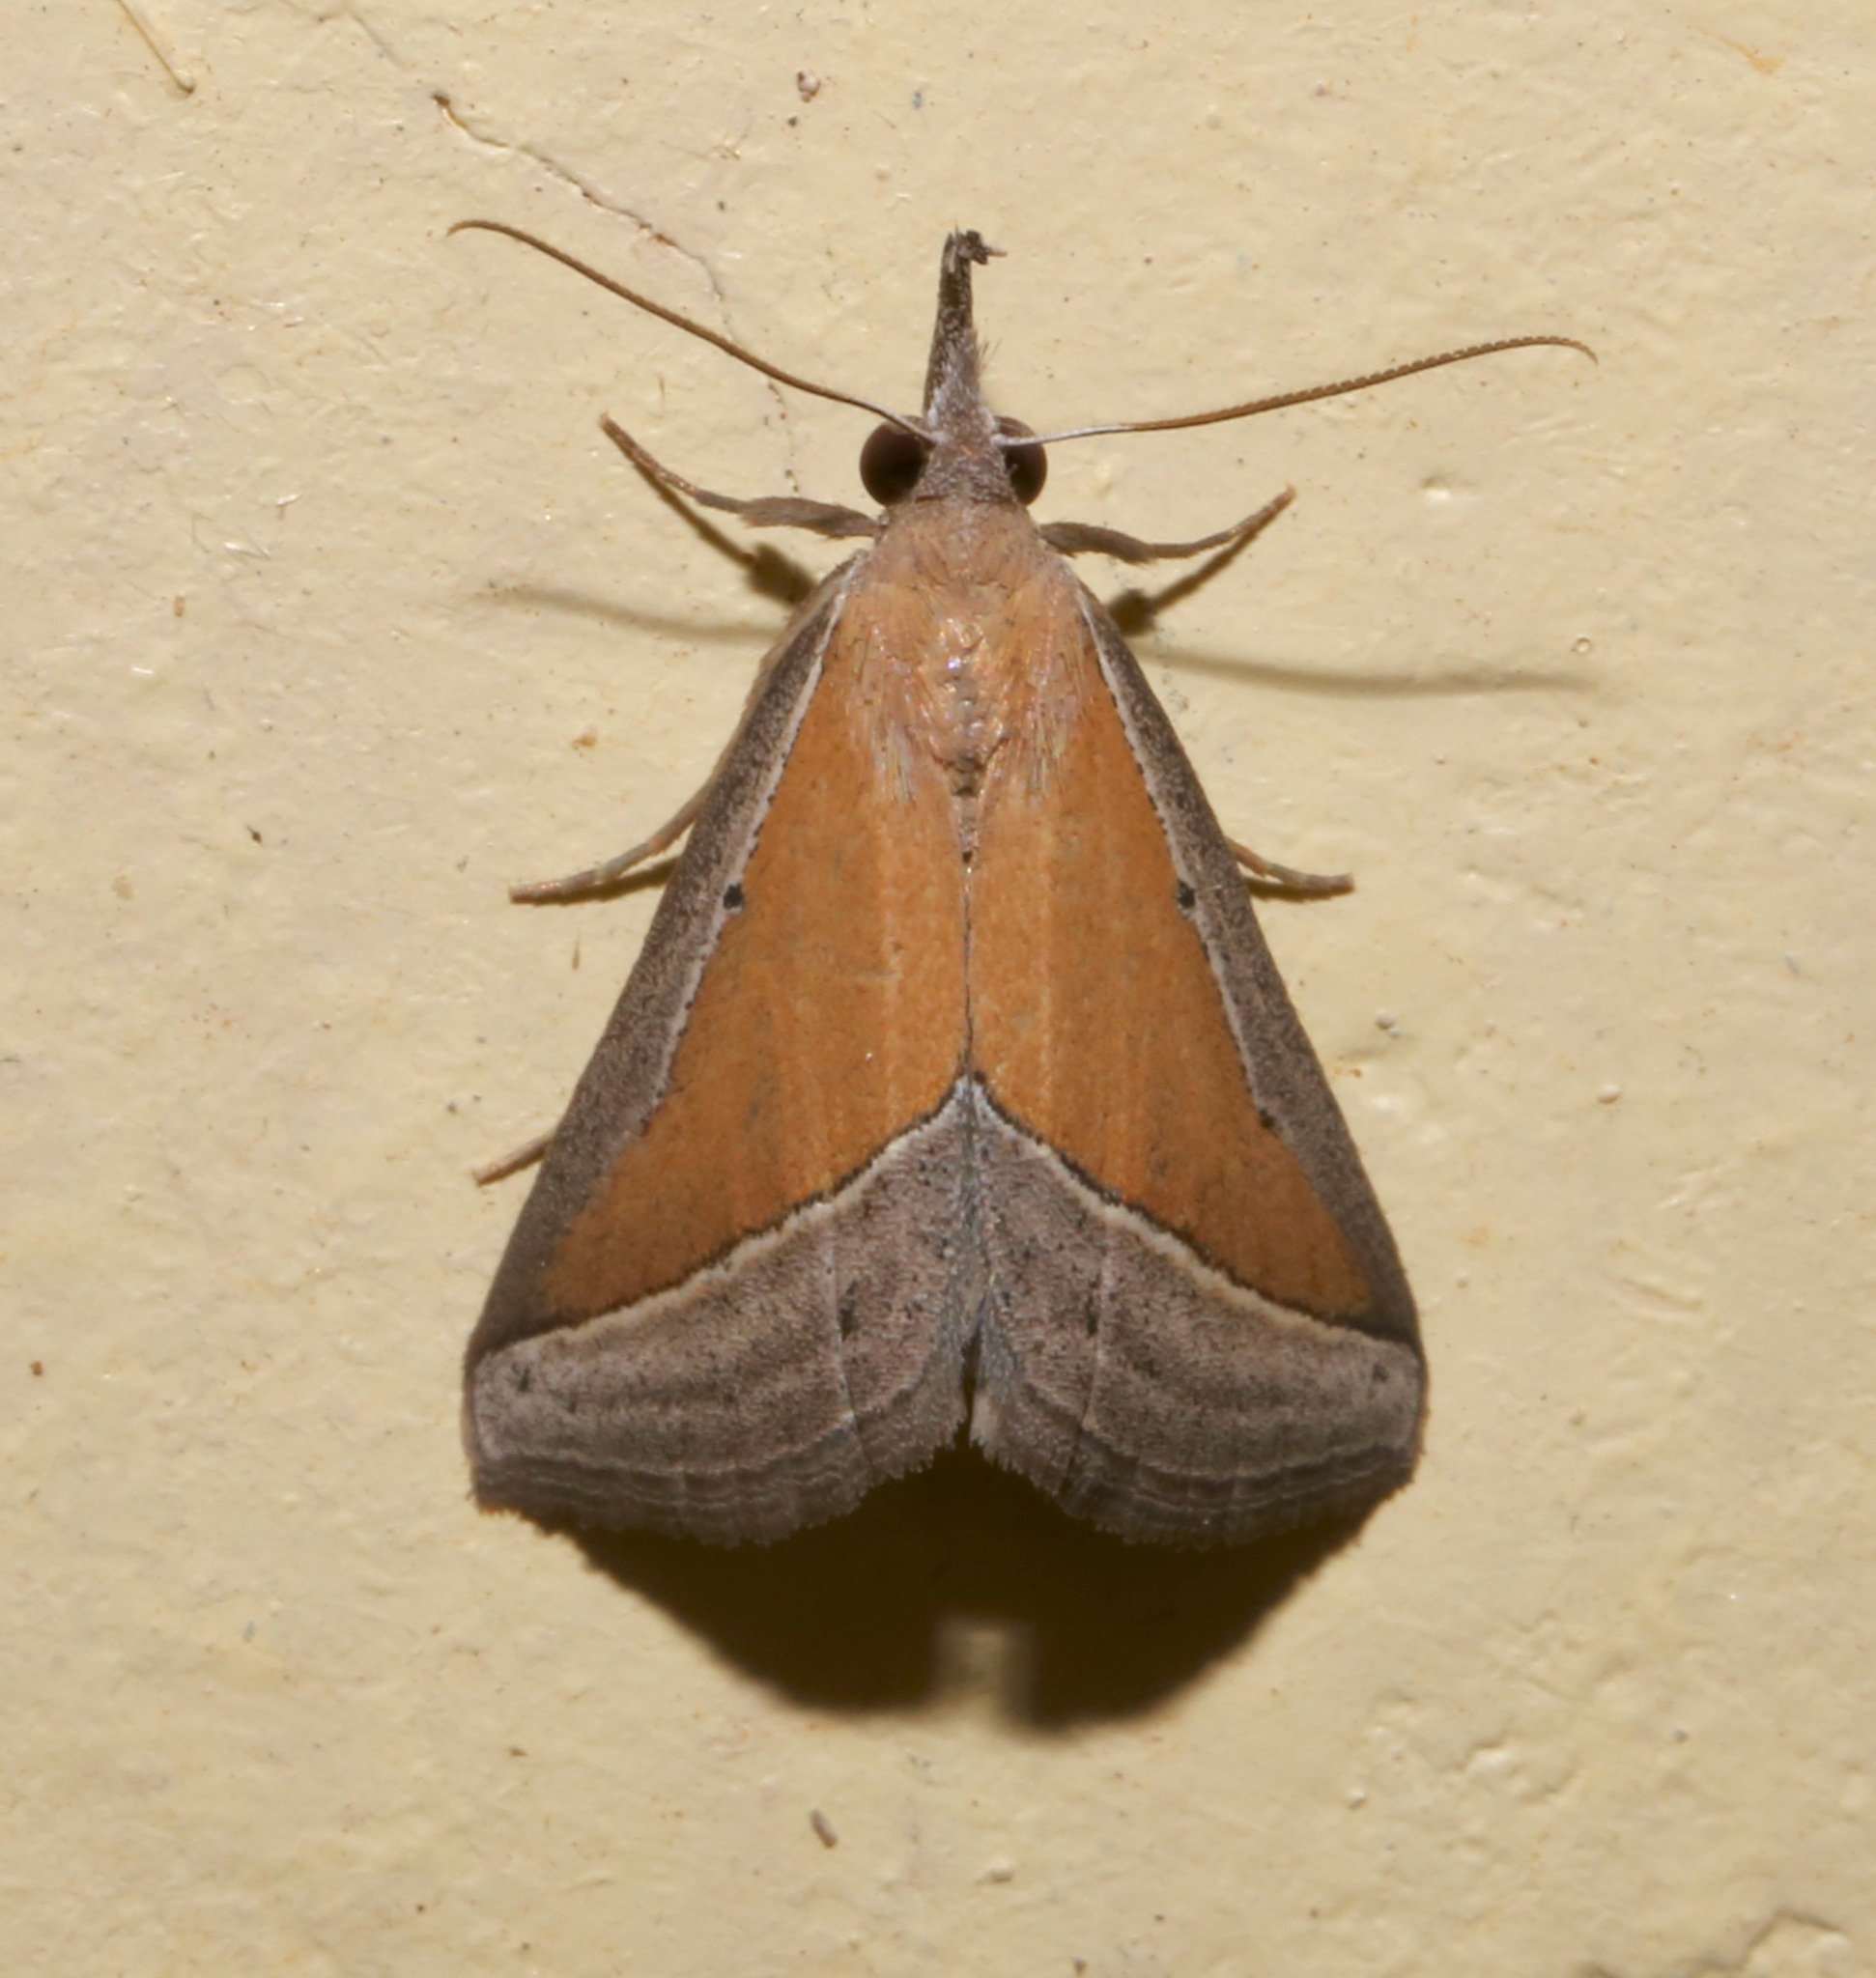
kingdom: Animalia
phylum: Arthropoda
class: Insecta
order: Lepidoptera
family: Erebidae
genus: Hypena
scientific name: Hypena conscitalis
